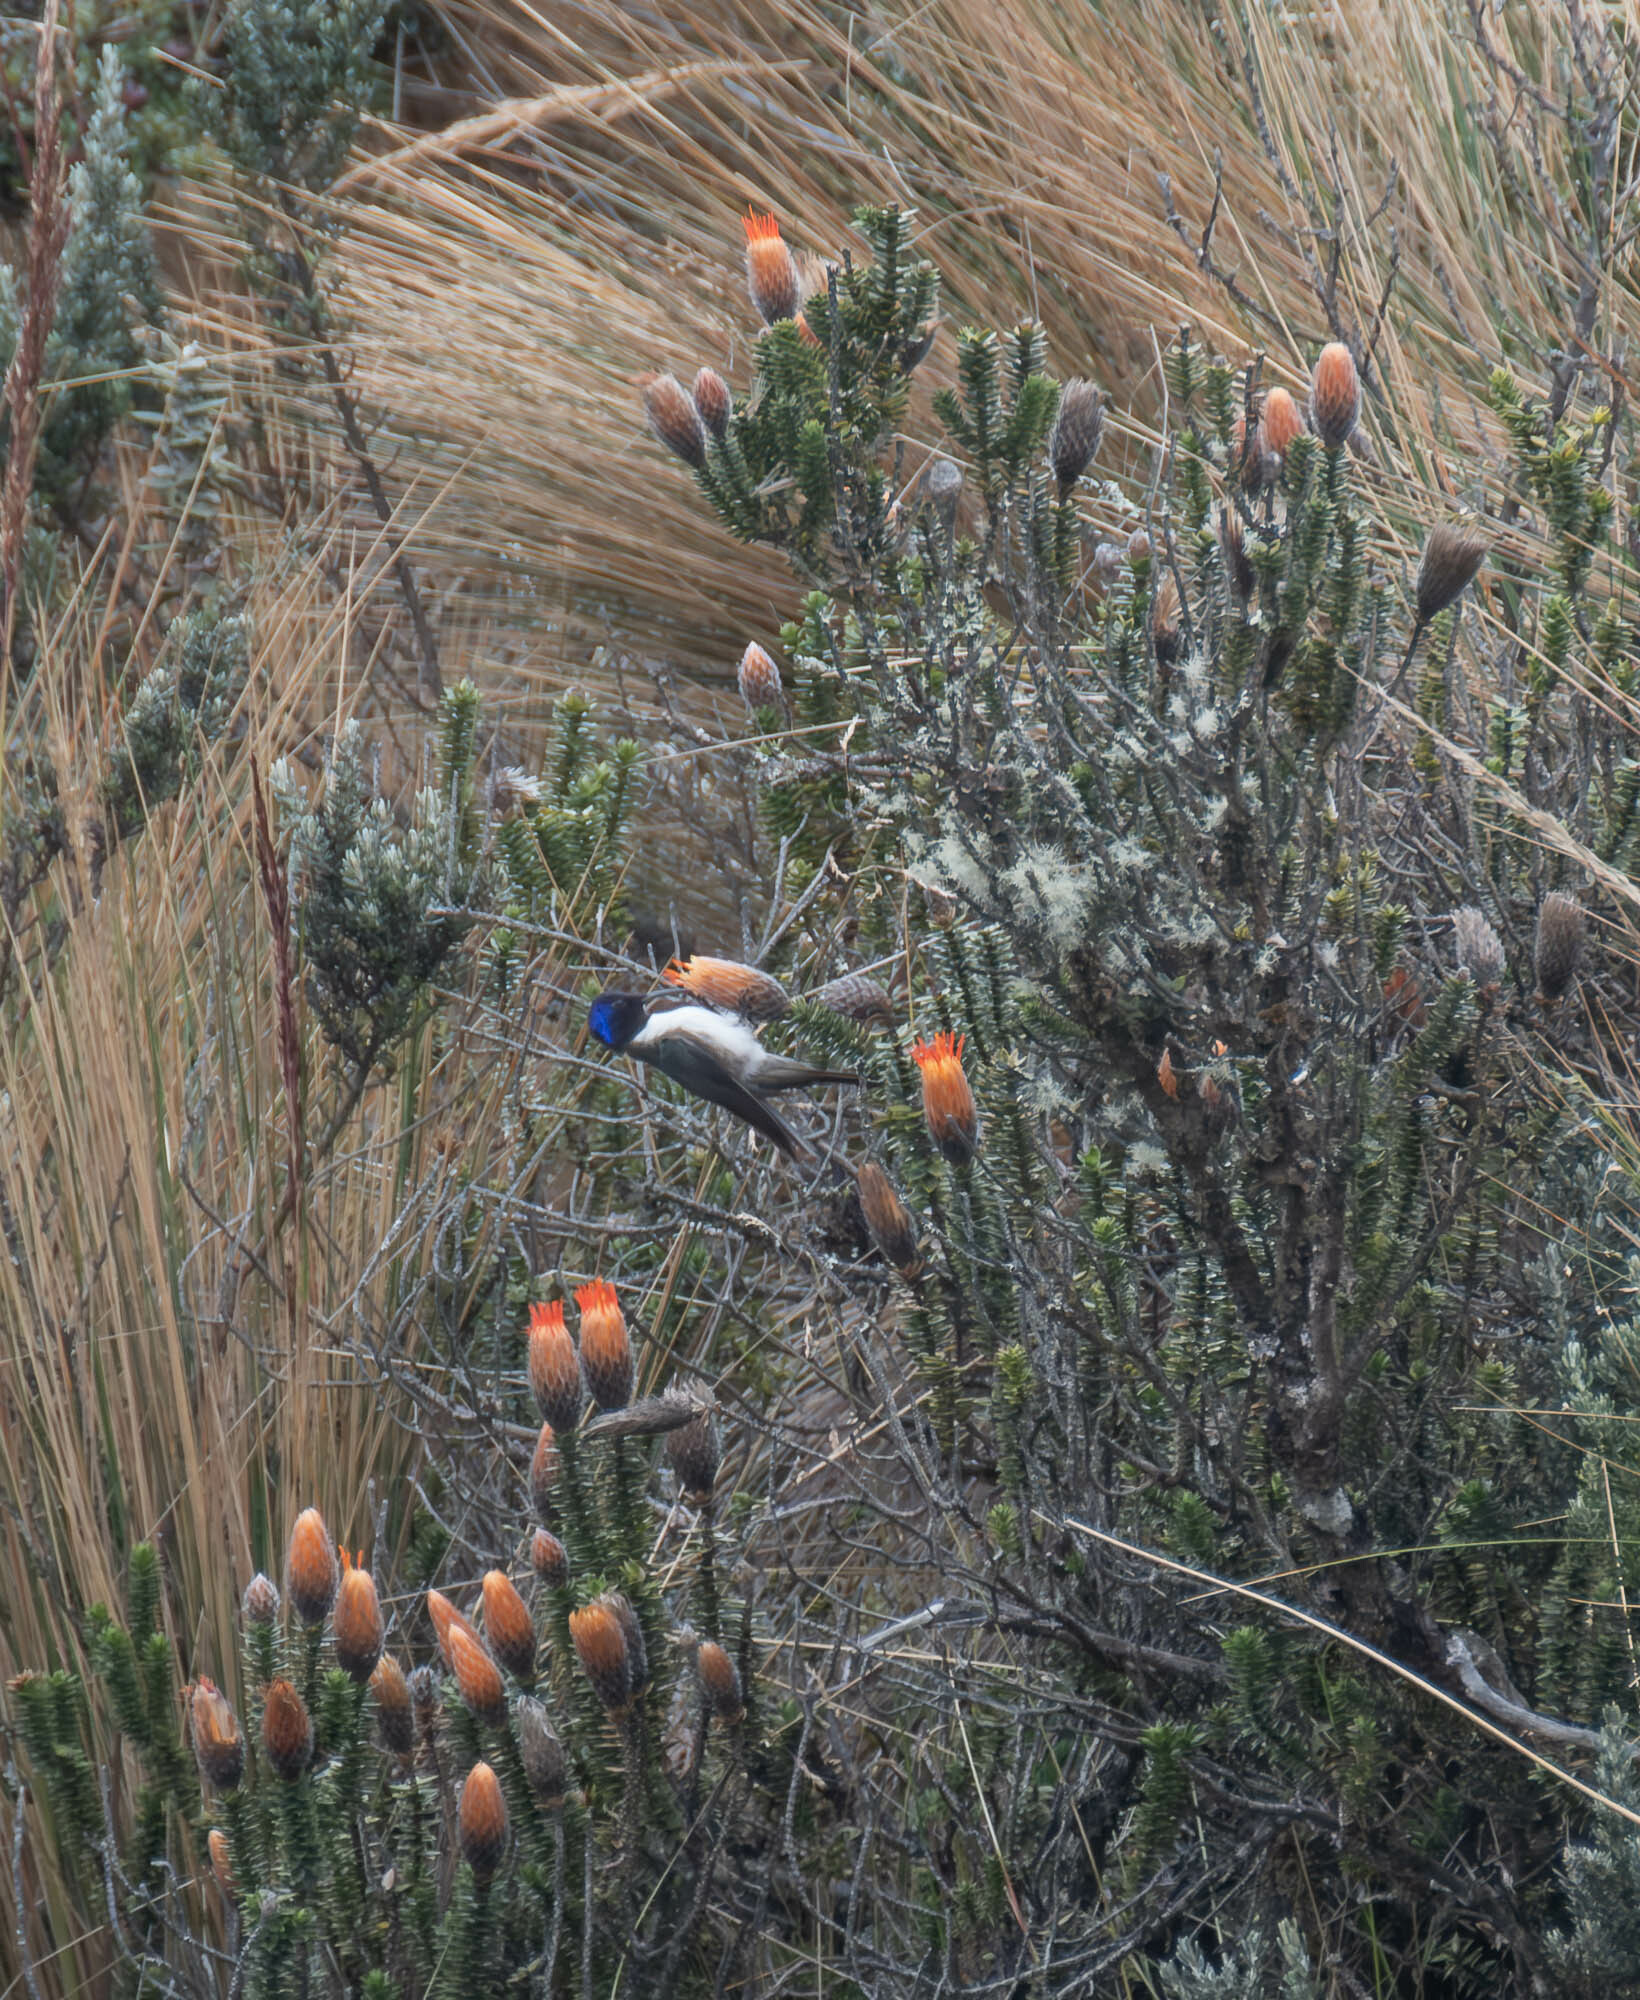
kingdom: Animalia
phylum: Chordata
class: Aves
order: Apodiformes
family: Trochilidae
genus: Oreotrochilus
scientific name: Oreotrochilus chimborazo
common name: Ecuadorian hillstar
